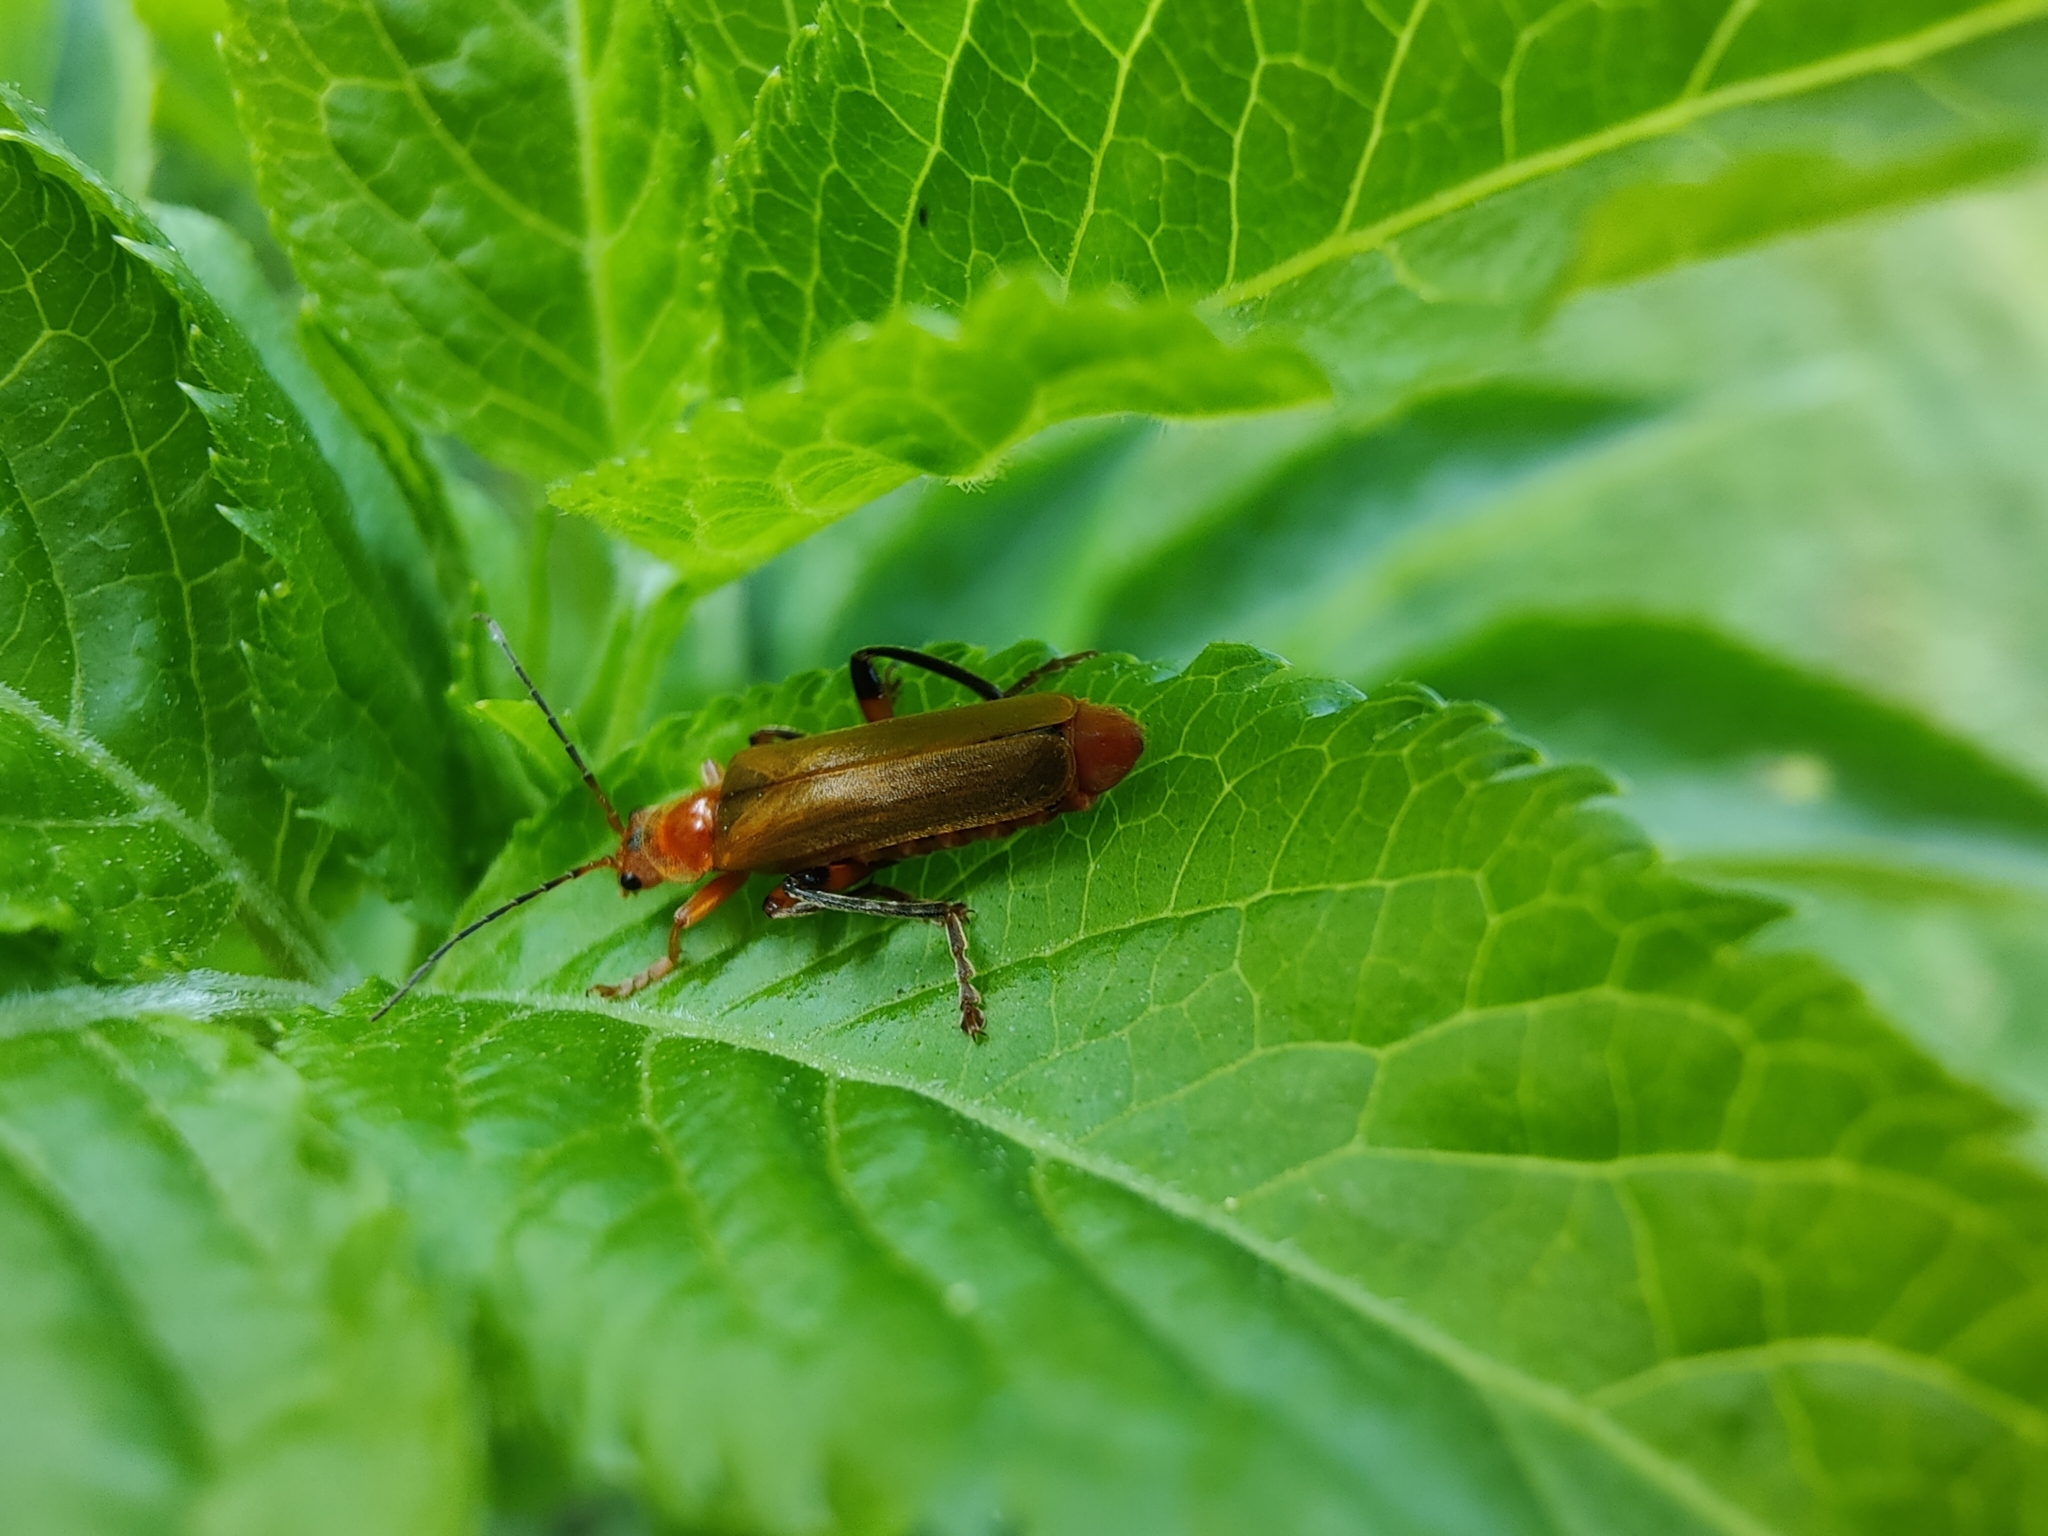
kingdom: Animalia
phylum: Arthropoda
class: Insecta
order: Coleoptera
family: Cantharidae
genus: Cantharis
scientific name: Cantharis livida
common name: Livid soldier beetle
